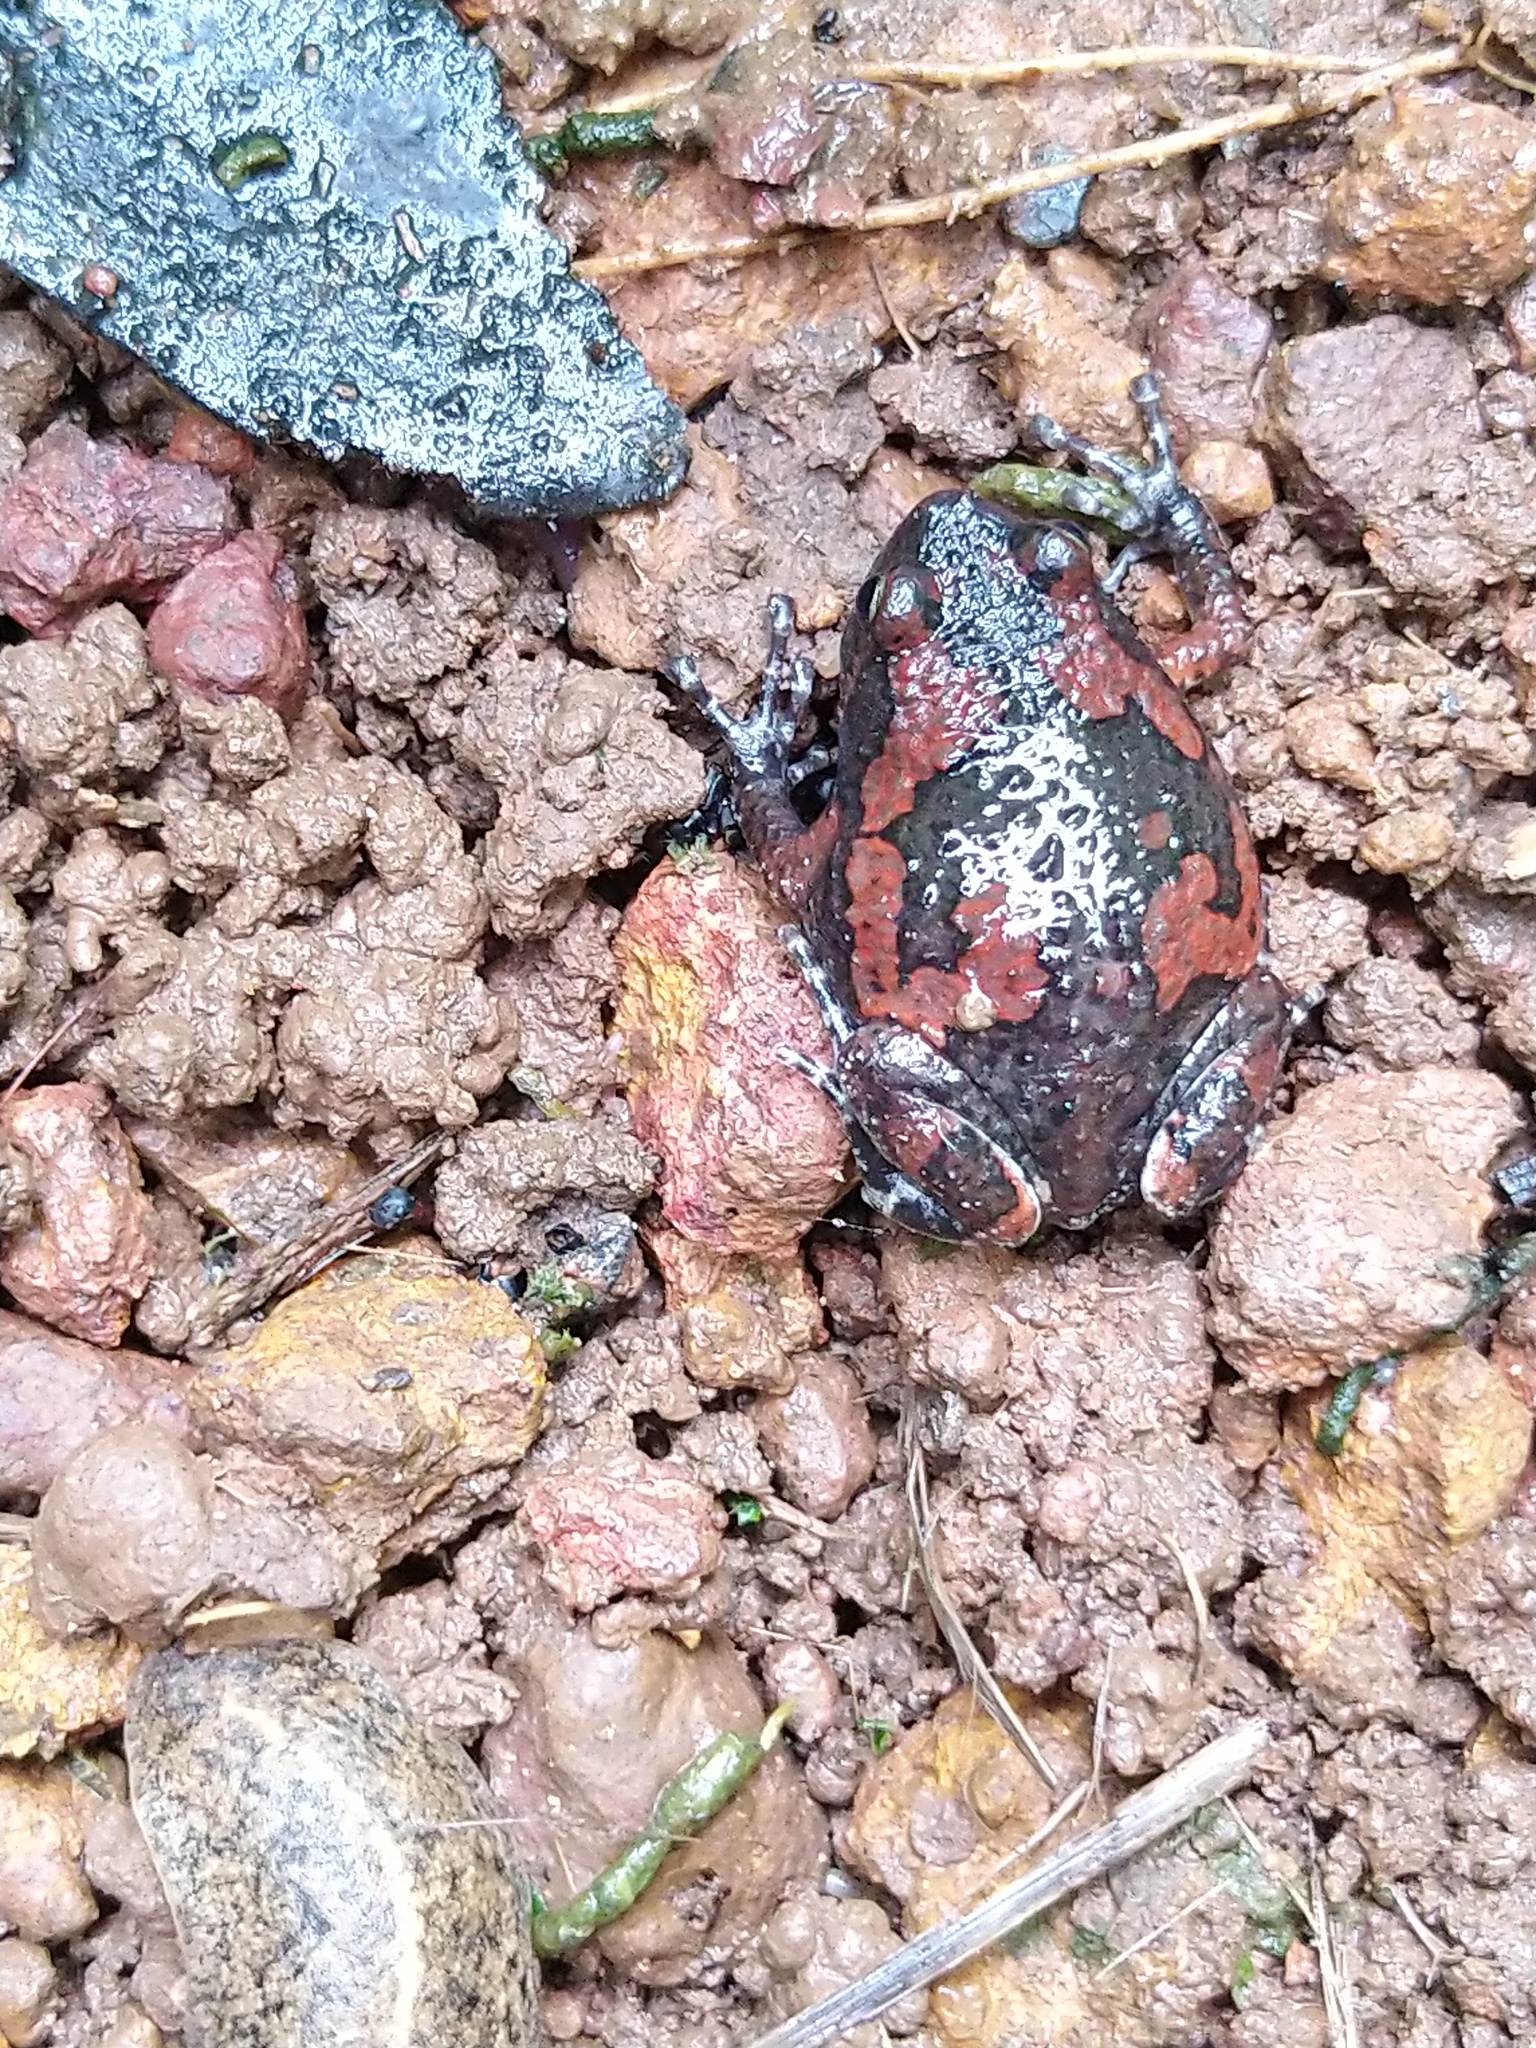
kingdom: Animalia
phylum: Chordata
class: Amphibia
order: Anura
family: Microhylidae
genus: Uperodon
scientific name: Uperodon taprobanicus
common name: Ceylon kaloula
